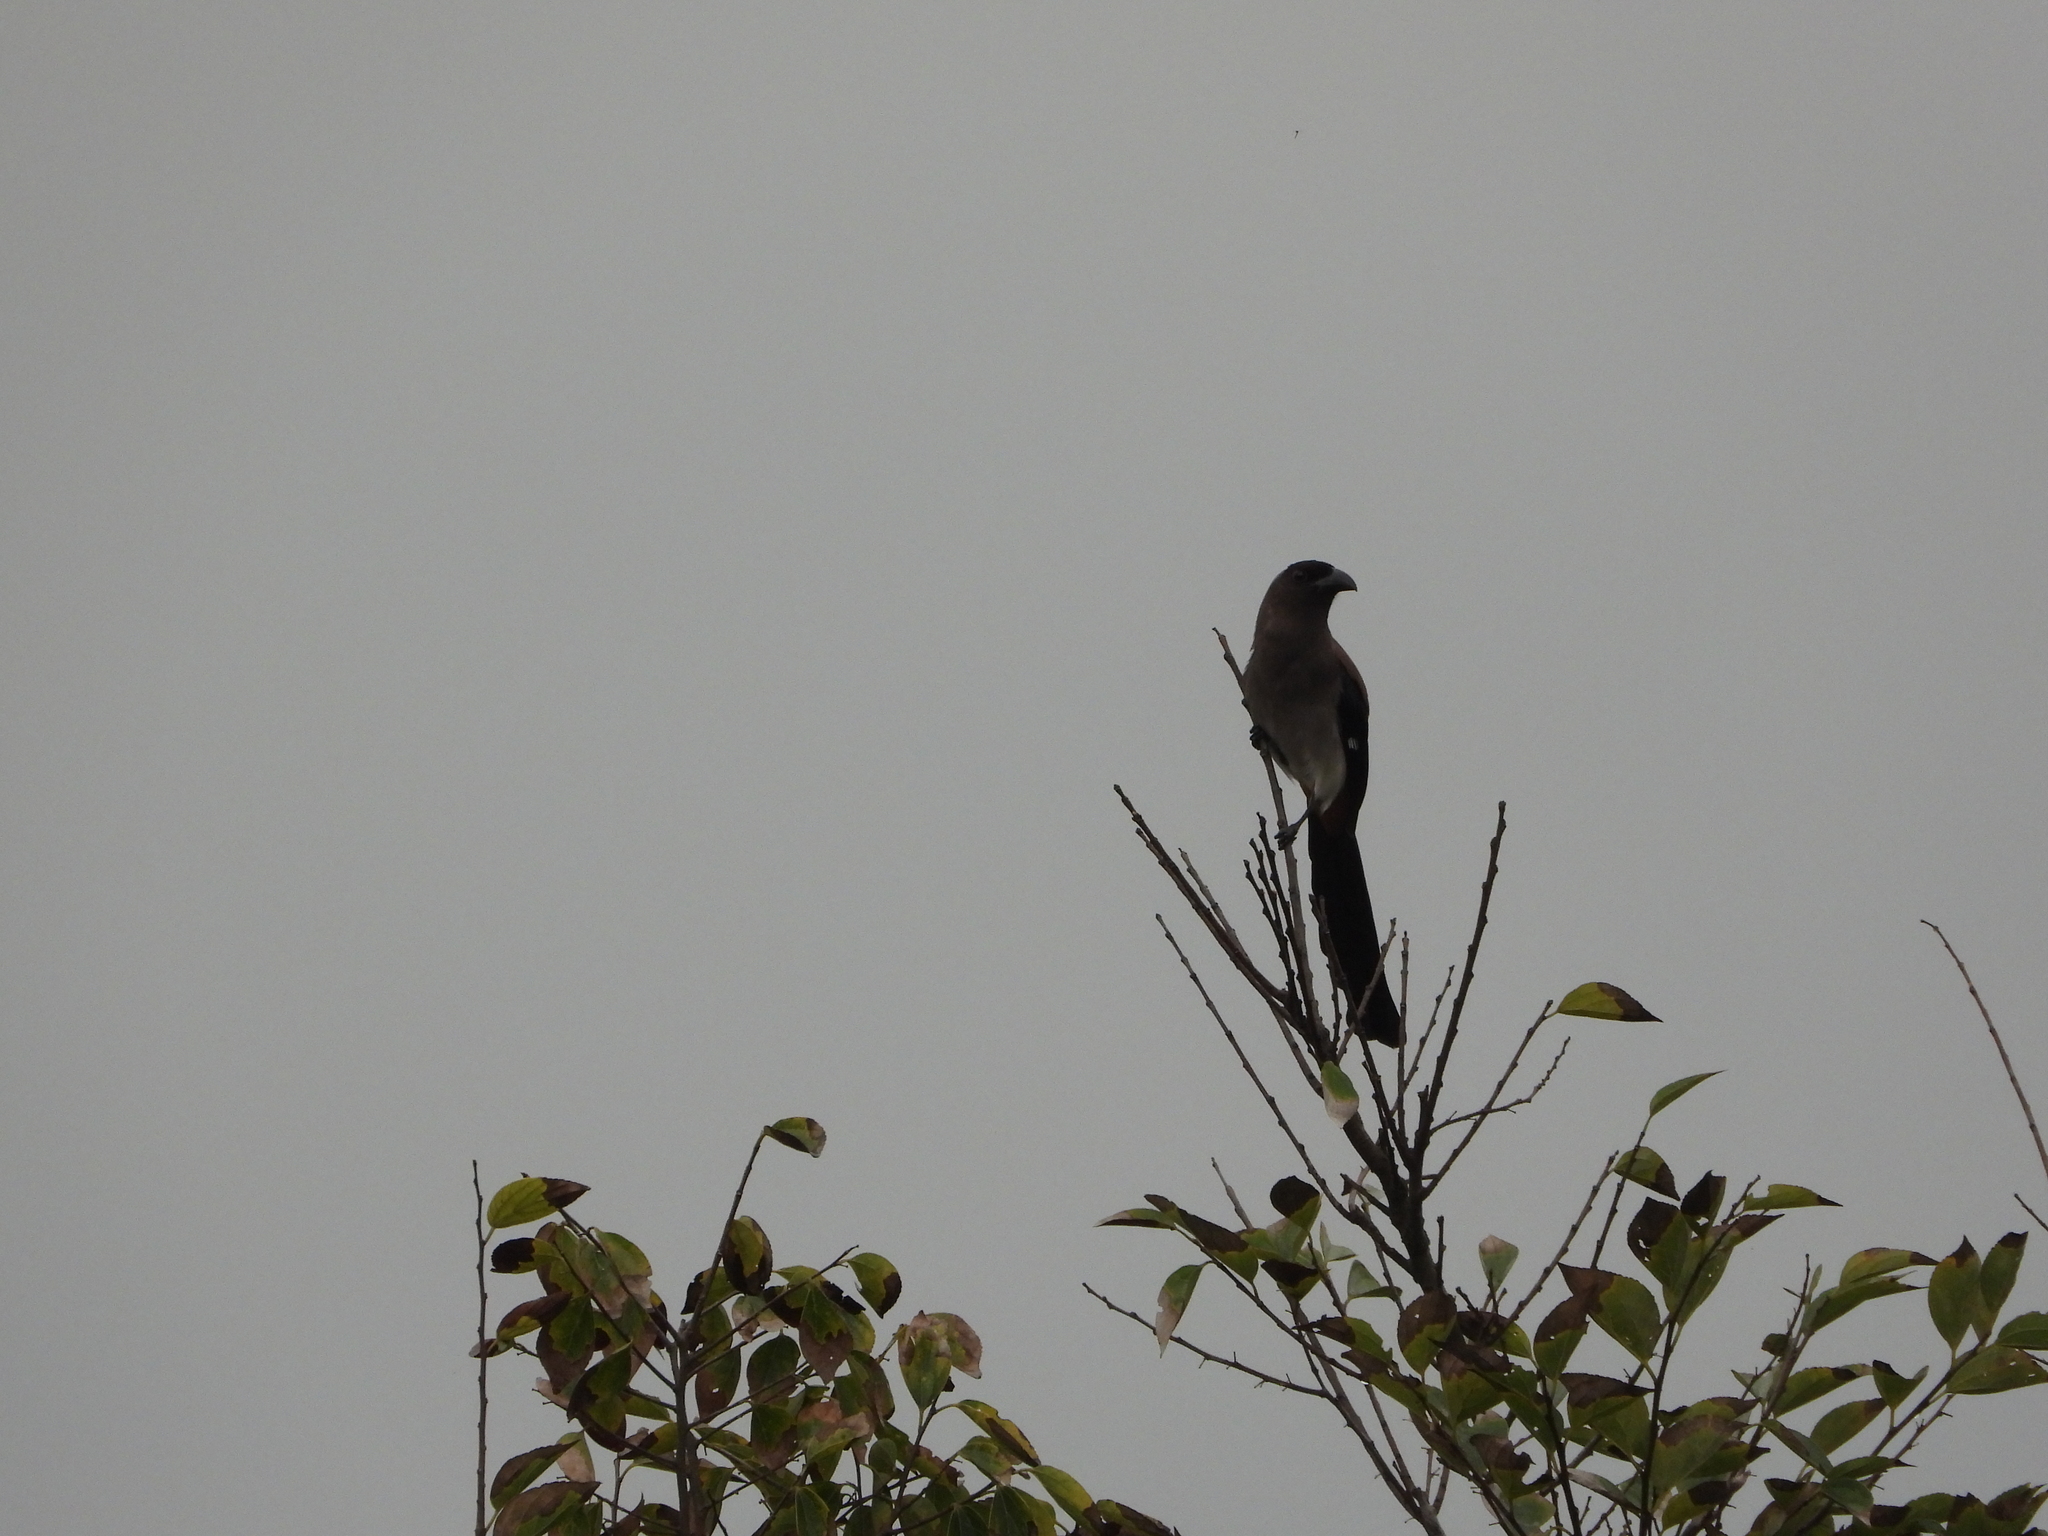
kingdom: Animalia
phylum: Chordata
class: Aves
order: Passeriformes
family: Corvidae
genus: Dendrocitta
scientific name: Dendrocitta formosae
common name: Grey treepie
